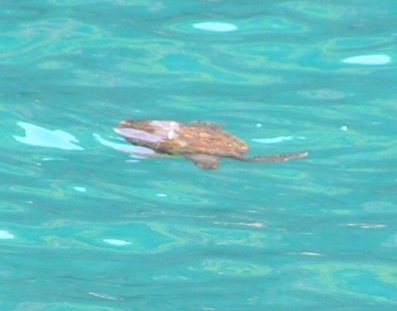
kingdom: Animalia
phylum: Chordata
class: Testudines
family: Cheloniidae
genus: Chelonia
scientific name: Chelonia mydas
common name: Green turtle
